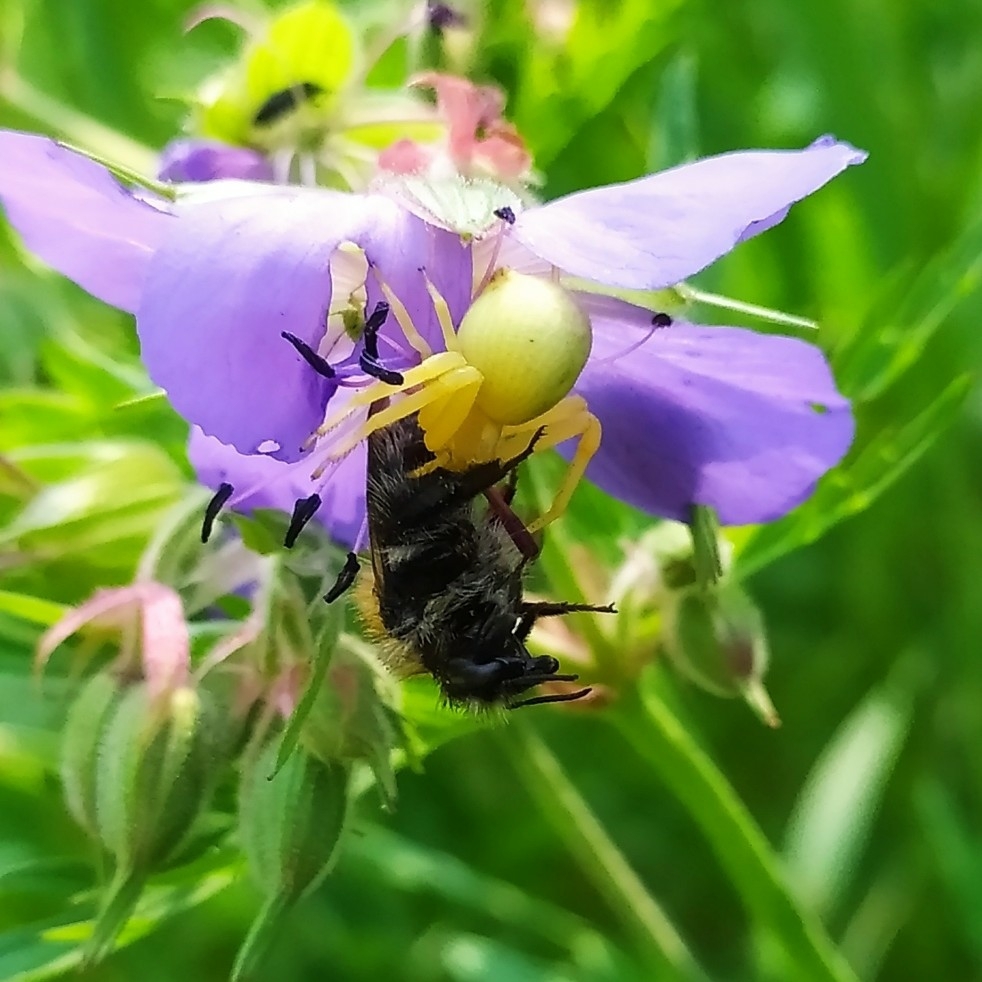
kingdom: Animalia
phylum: Arthropoda
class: Arachnida
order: Araneae
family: Thomisidae
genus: Misumena
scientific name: Misumena vatia
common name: Goldenrod crab spider
